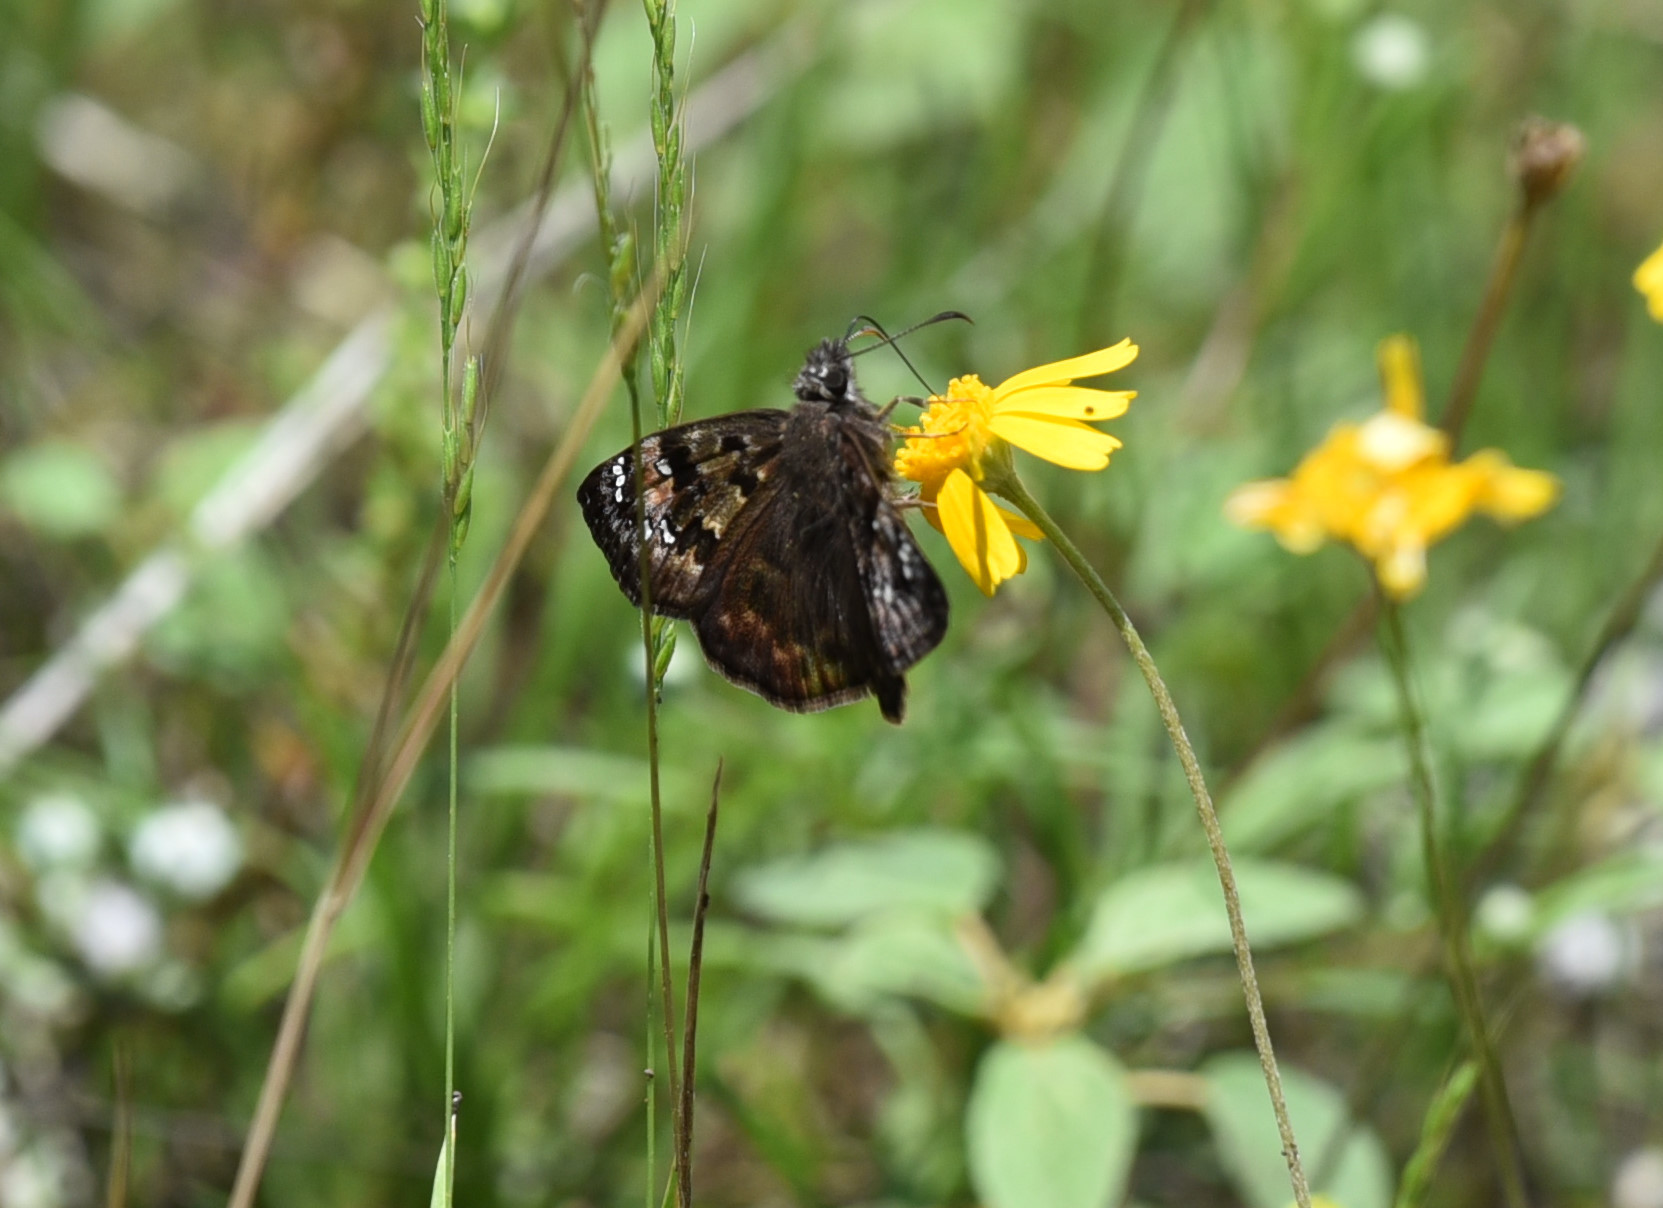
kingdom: Animalia
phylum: Arthropoda
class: Insecta
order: Lepidoptera
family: Hesperiidae
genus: Erynnis
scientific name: Erynnis horatius
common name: Horace's duskywing
